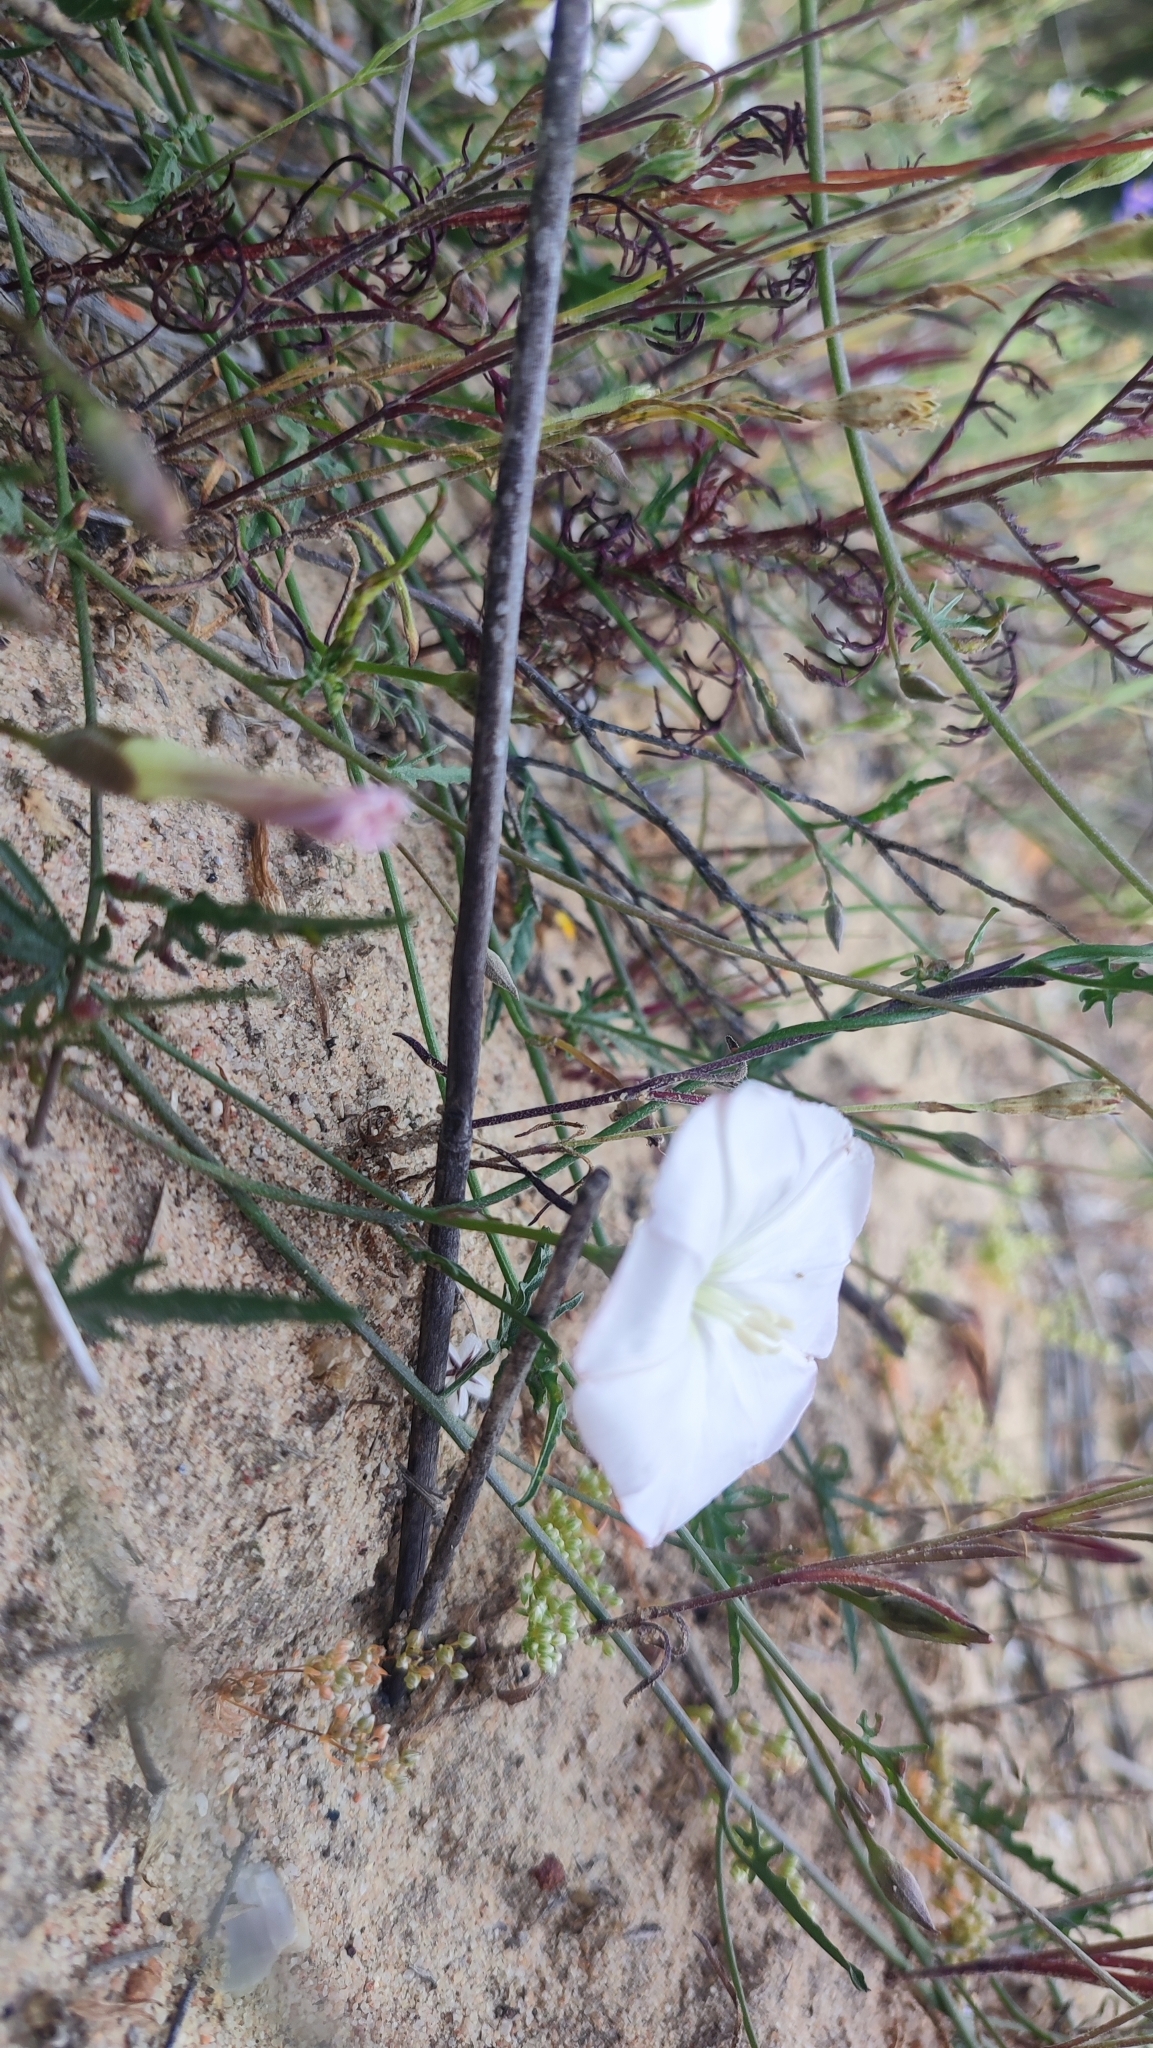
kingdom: Plantae
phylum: Tracheophyta
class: Magnoliopsida
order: Solanales
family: Convolvulaceae
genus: Convolvulus
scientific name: Convolvulus capensis
